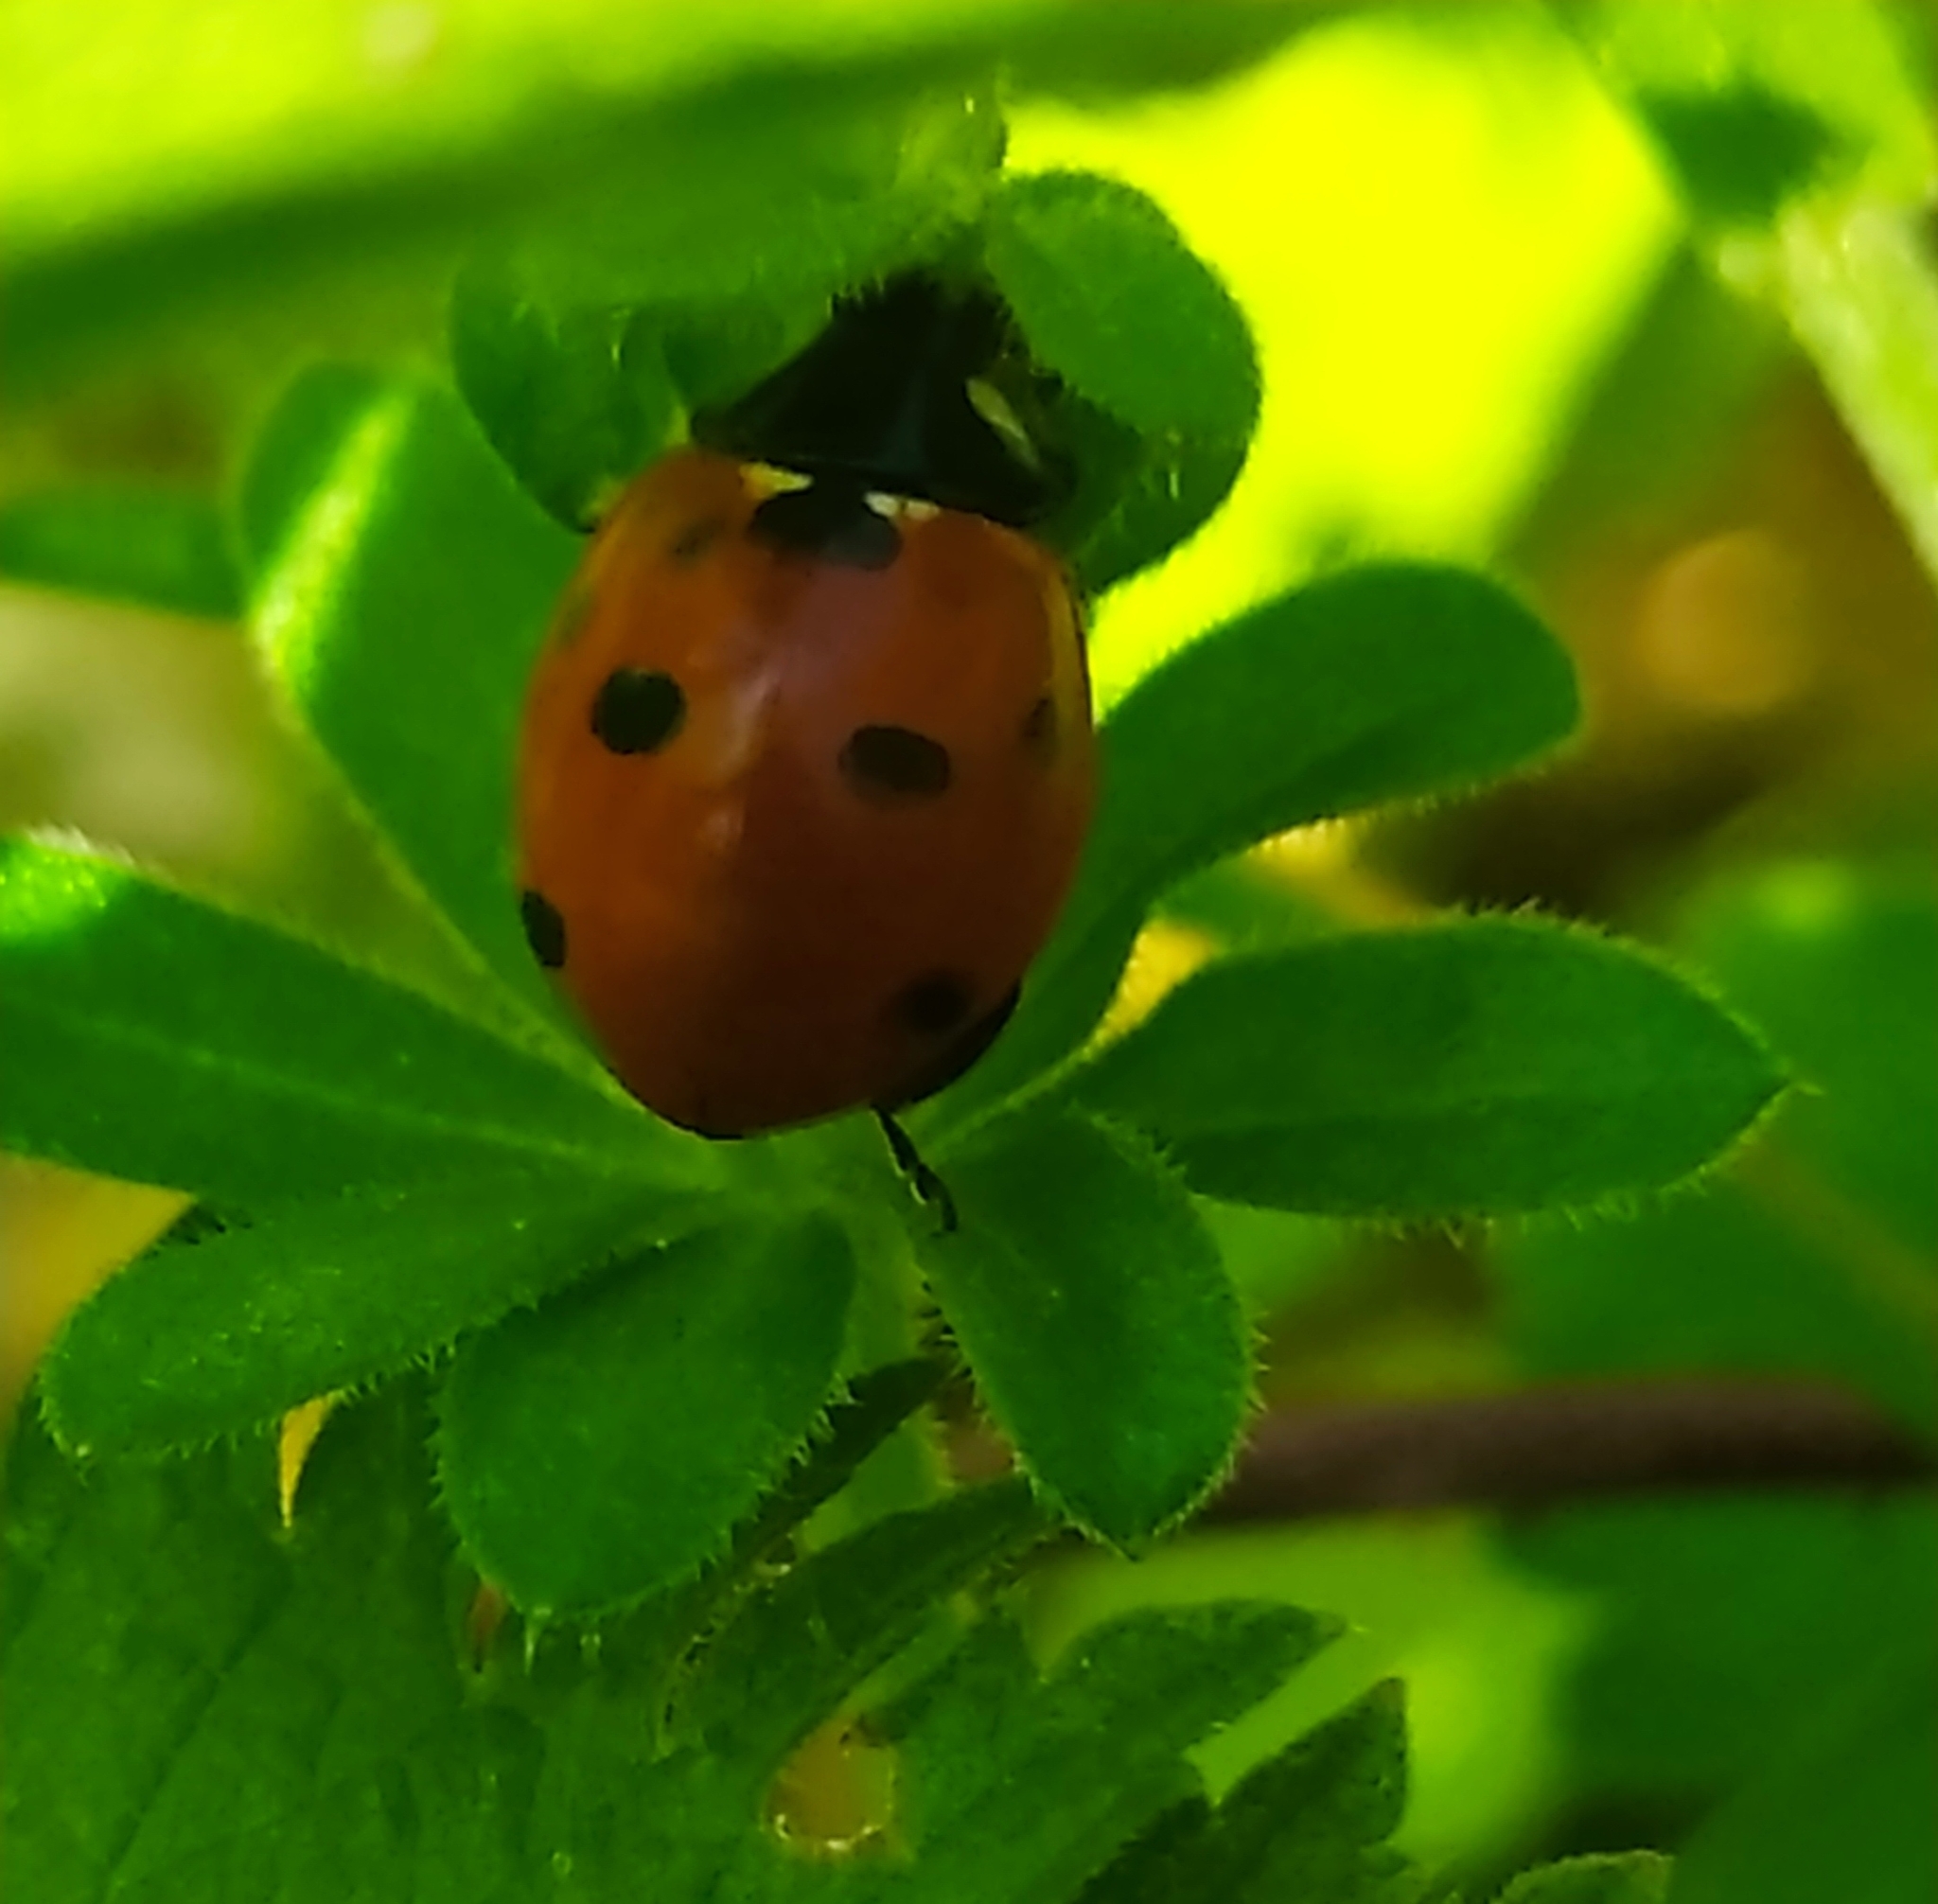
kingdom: Animalia
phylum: Arthropoda
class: Insecta
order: Coleoptera
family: Coccinellidae
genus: Coccinella
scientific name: Coccinella septempunctata
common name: Sevenspotted lady beetle
